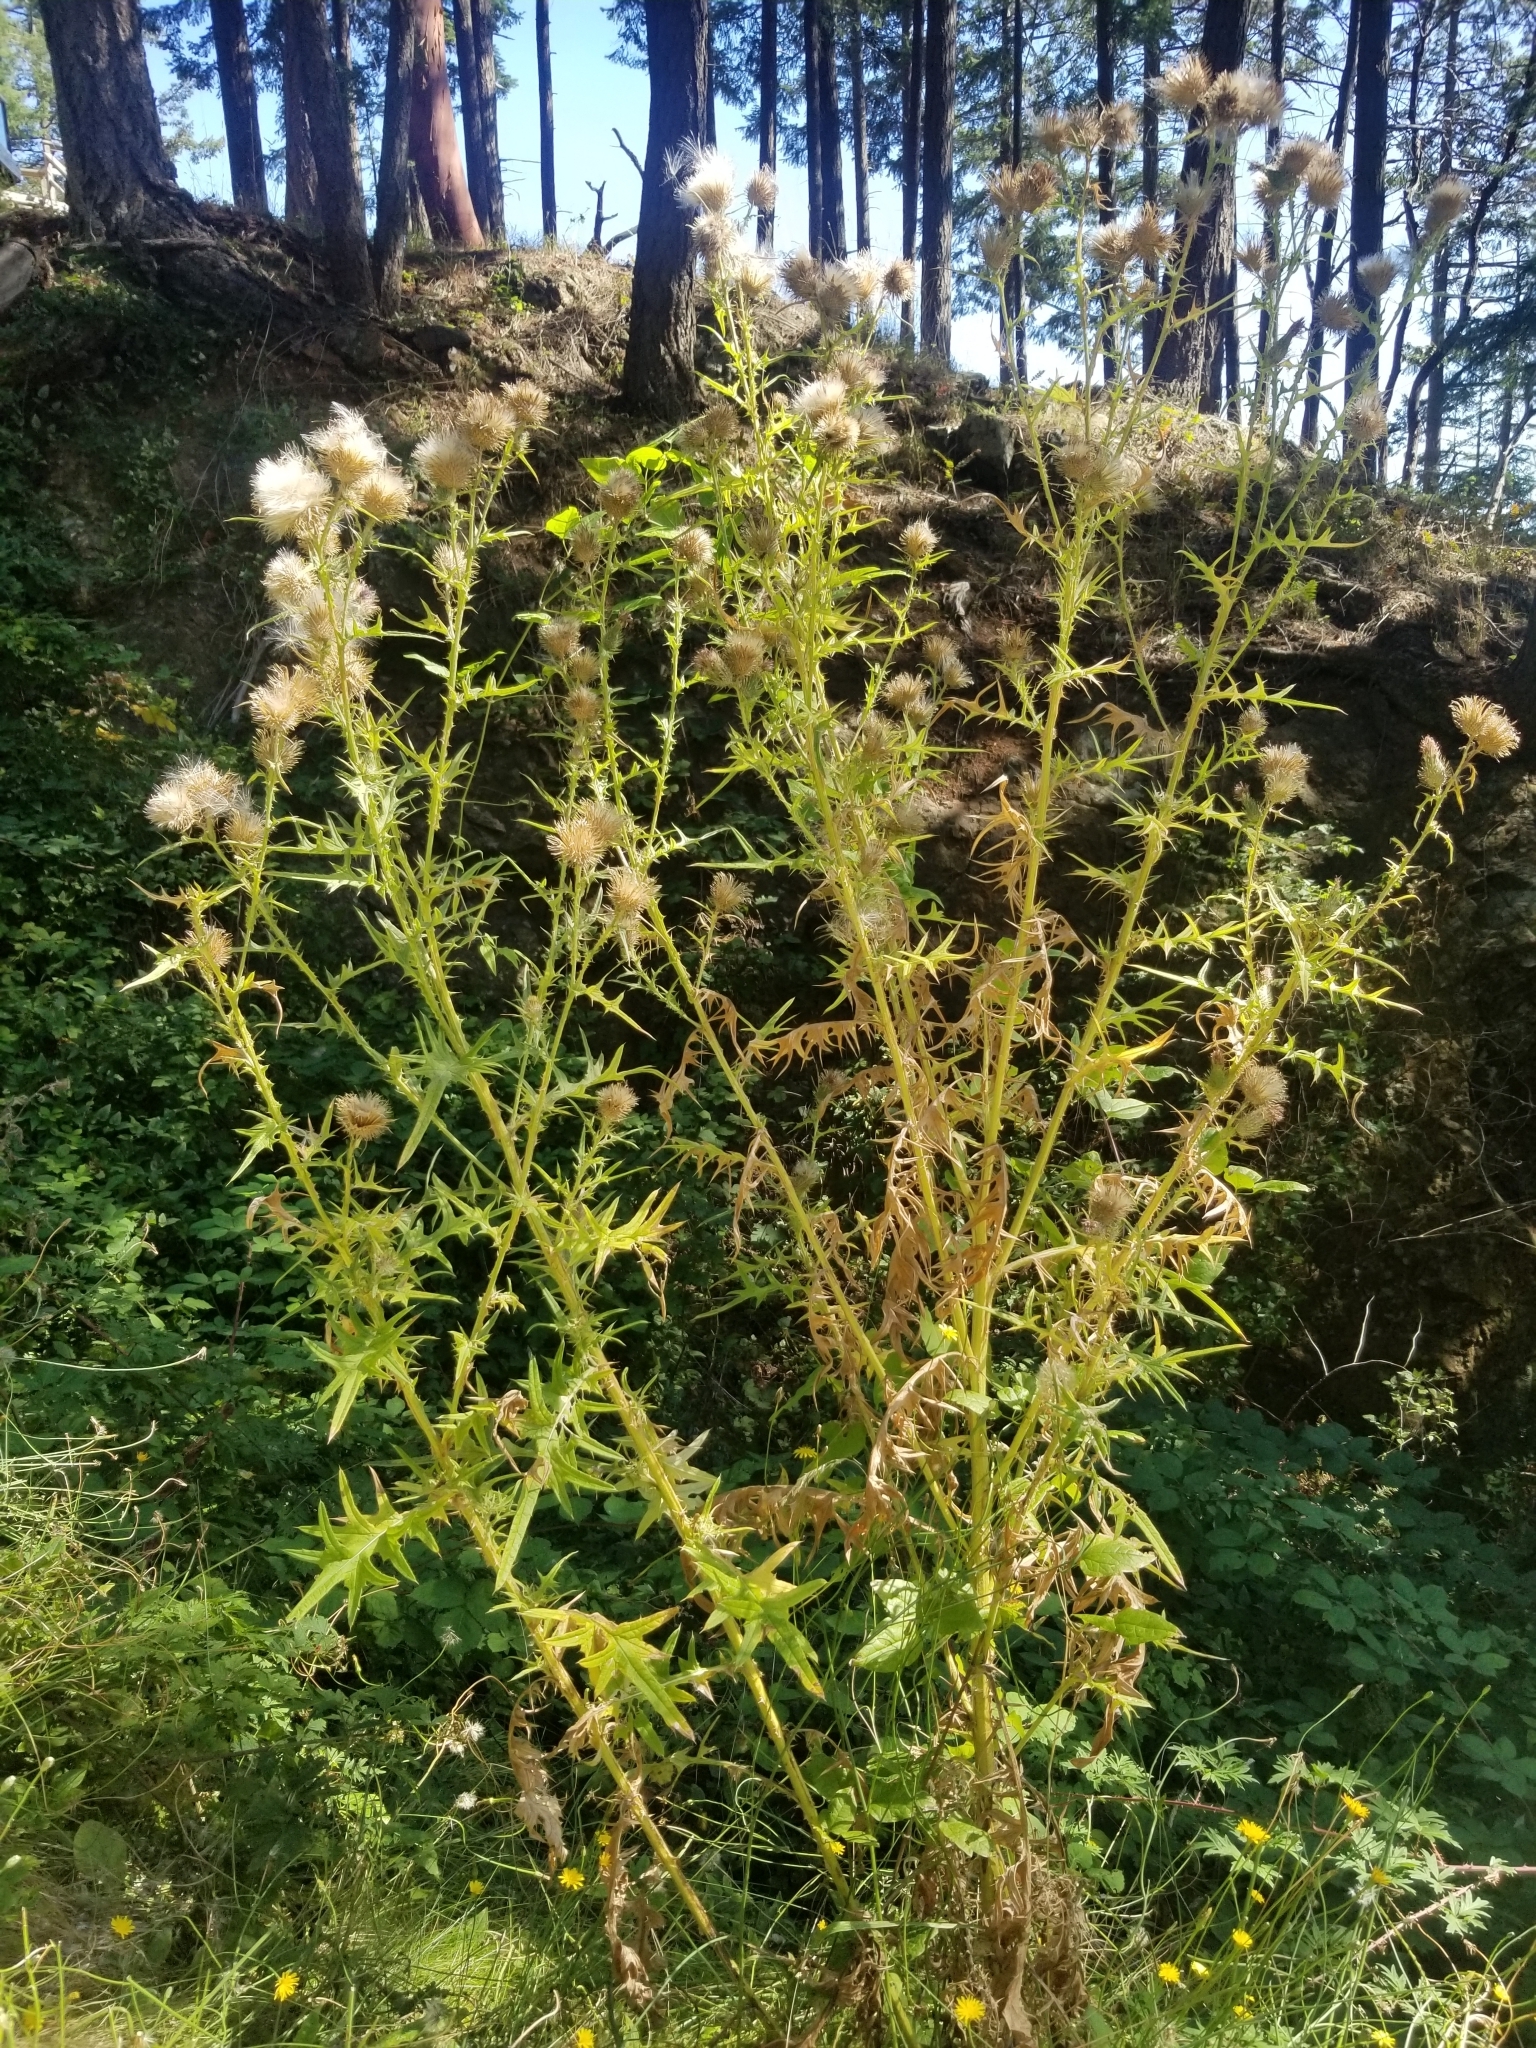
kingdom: Plantae
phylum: Tracheophyta
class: Magnoliopsida
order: Asterales
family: Asteraceae
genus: Cirsium
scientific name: Cirsium vulgare
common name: Bull thistle
